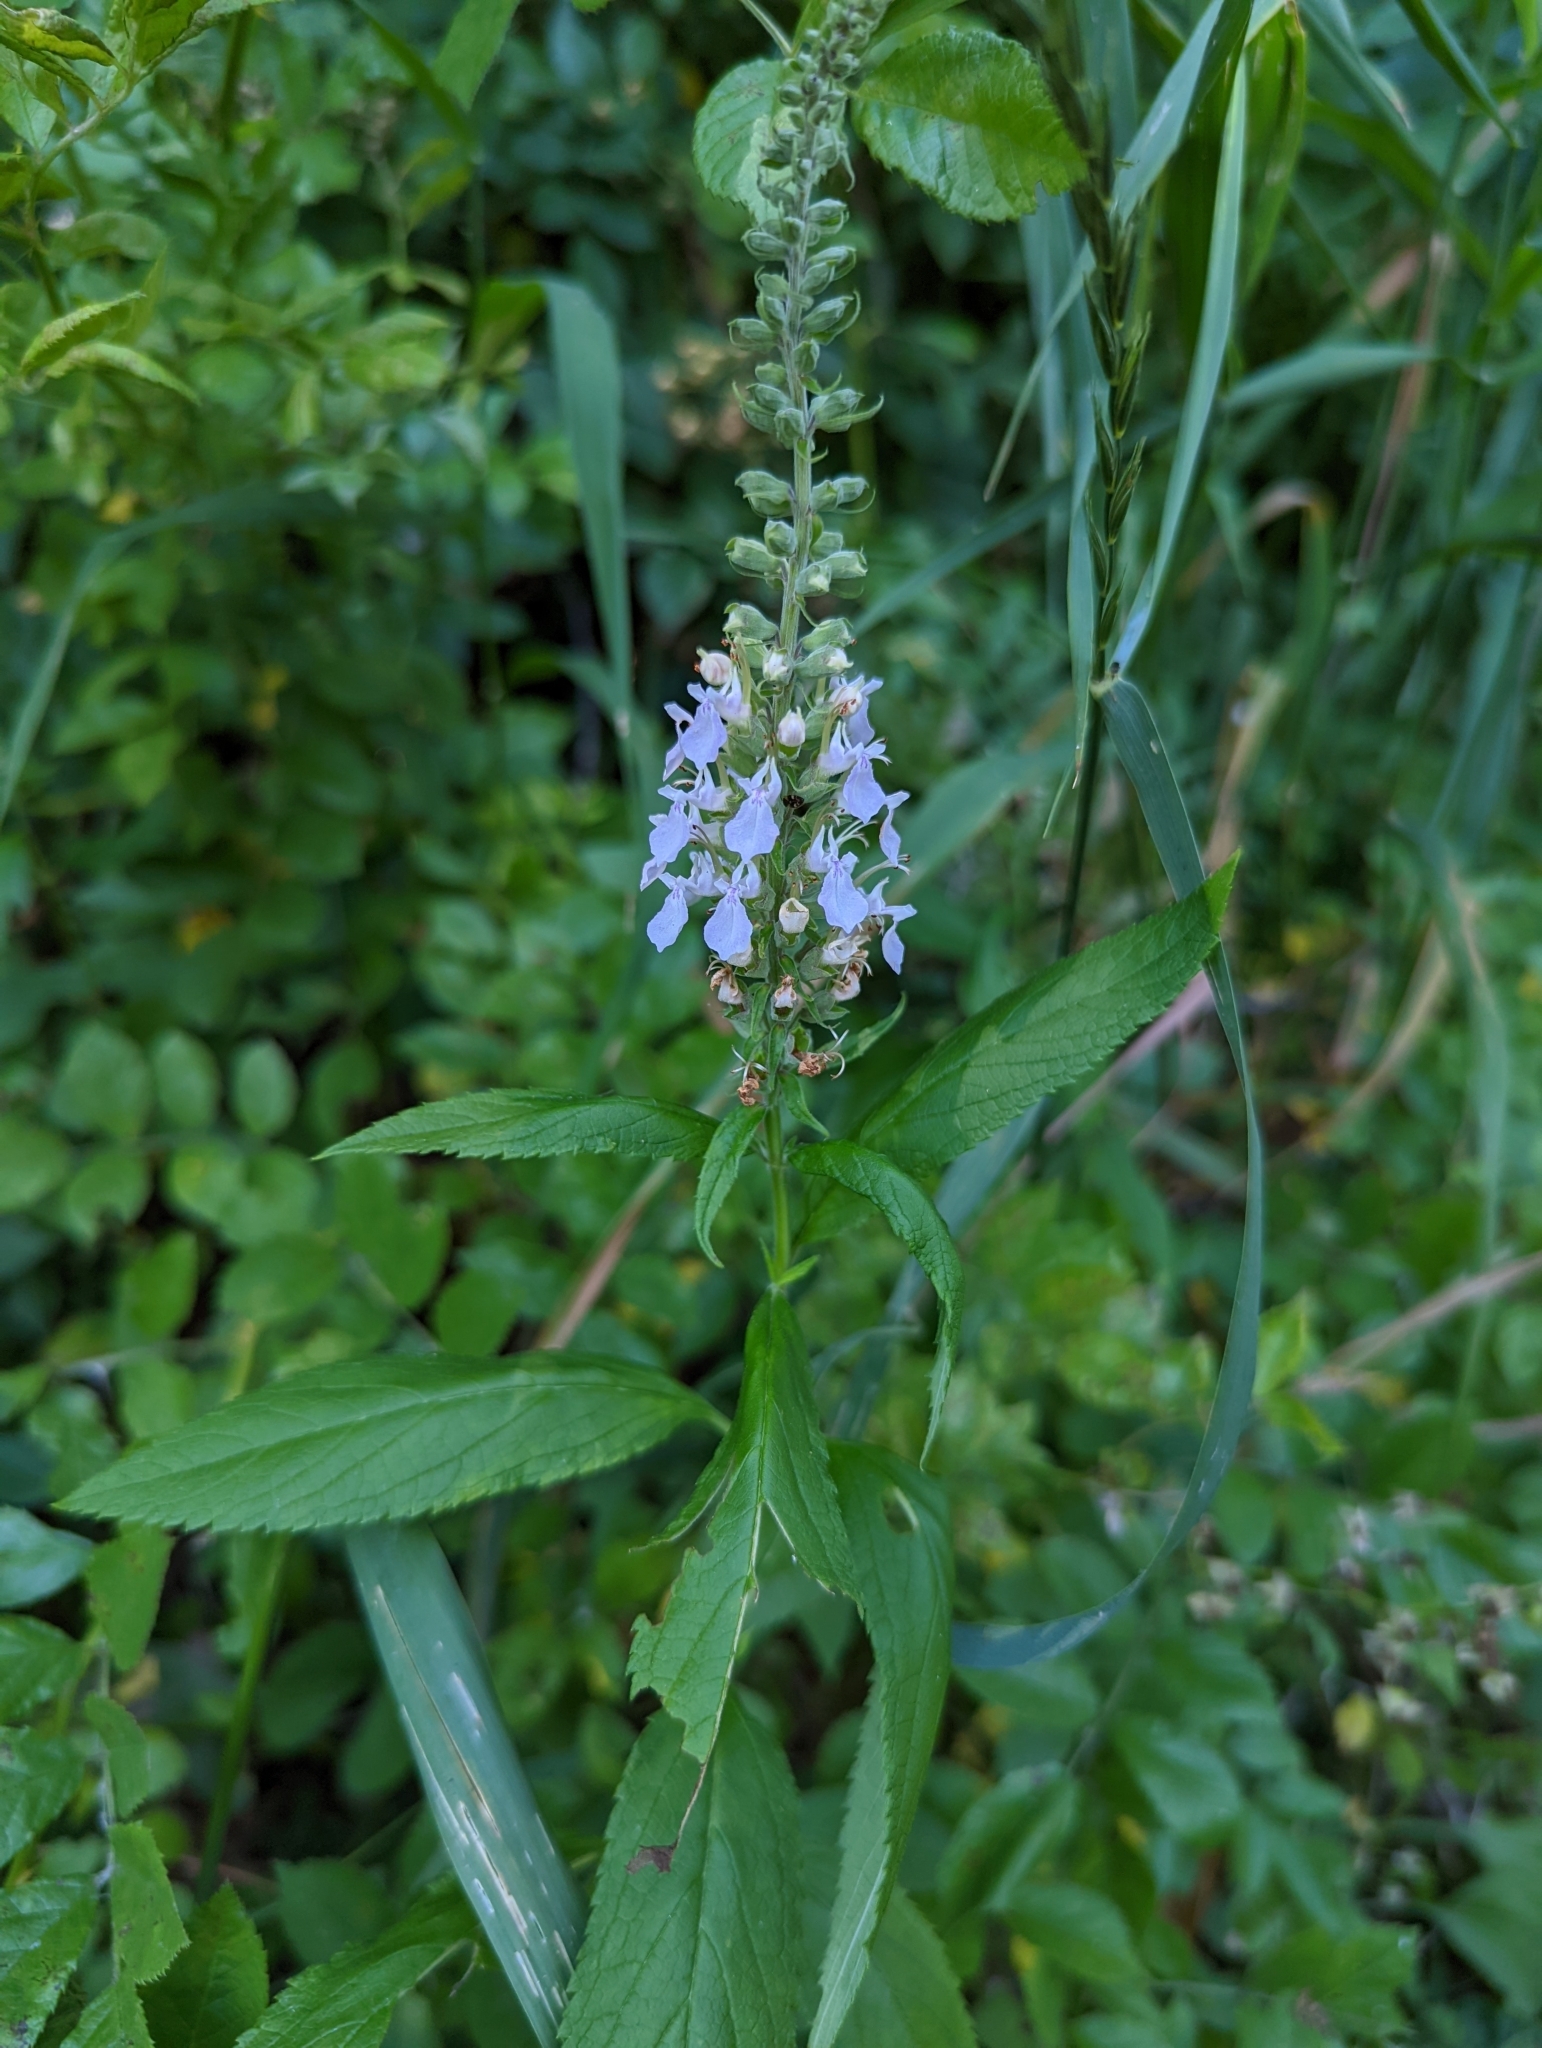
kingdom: Plantae
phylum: Tracheophyta
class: Magnoliopsida
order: Lamiales
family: Lamiaceae
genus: Teucrium
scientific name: Teucrium canadense
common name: American germander
